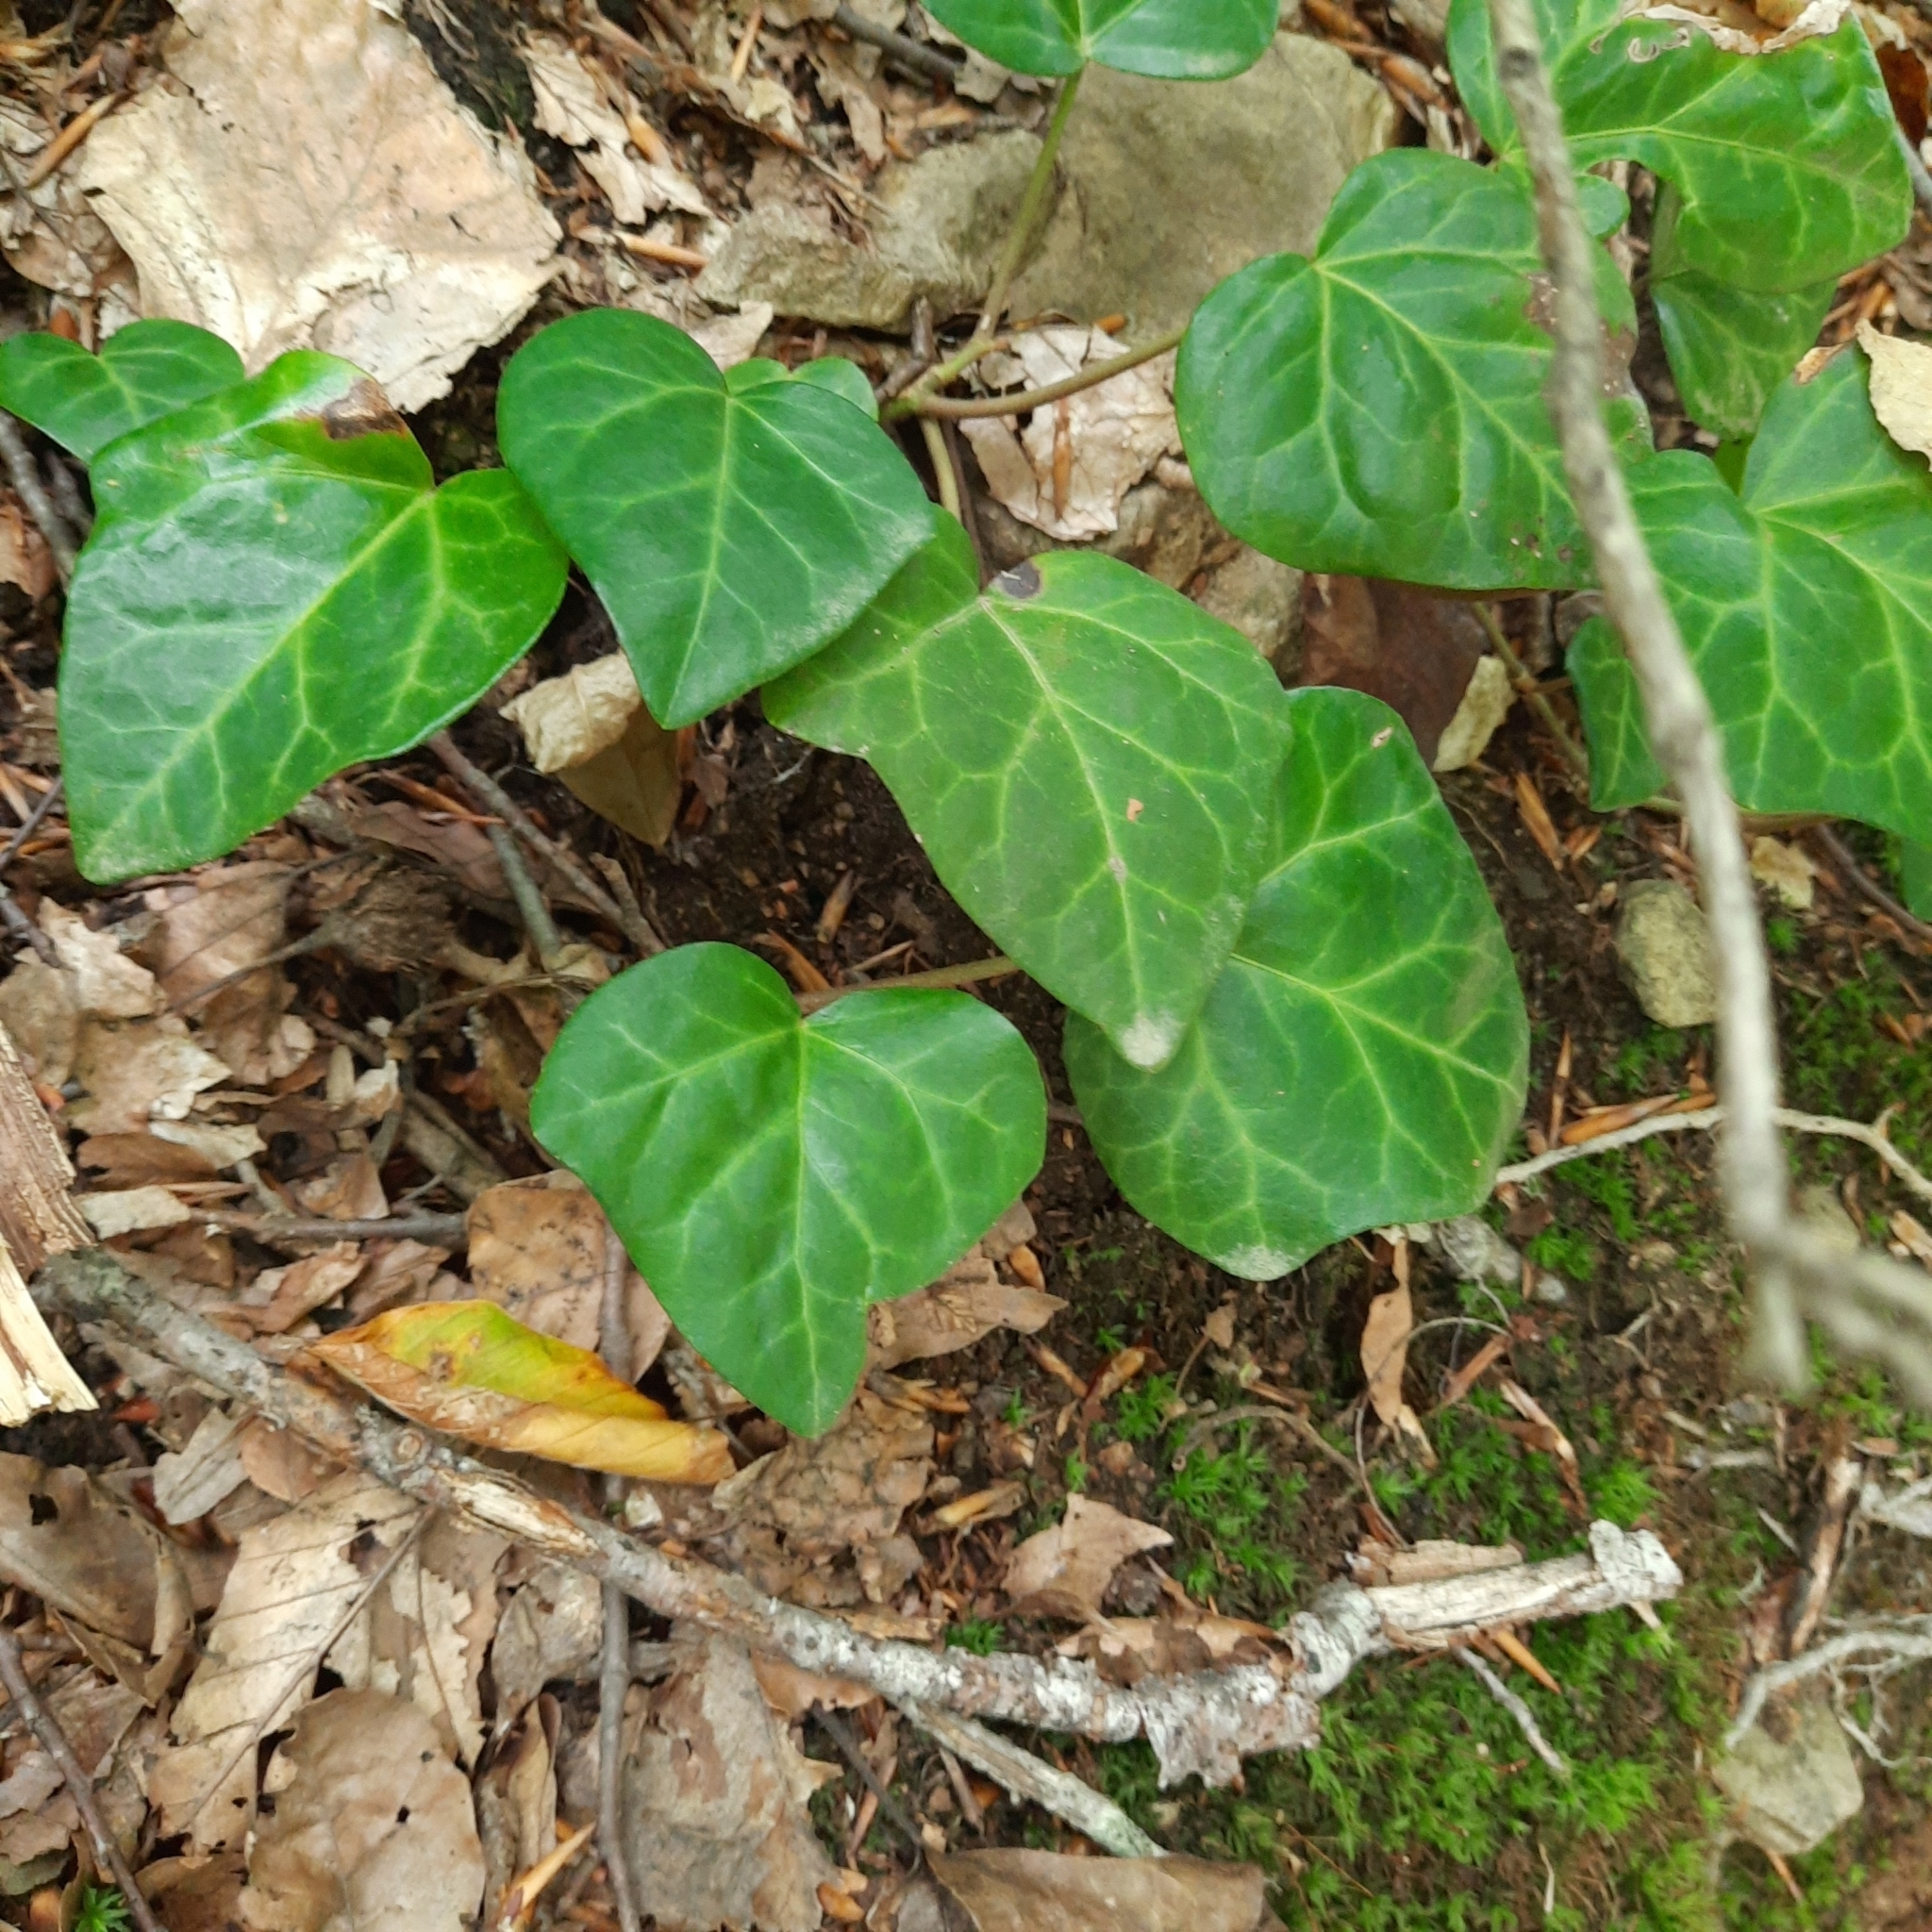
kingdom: Plantae
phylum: Tracheophyta
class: Magnoliopsida
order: Apiales
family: Araliaceae
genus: Hedera
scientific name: Hedera colchica
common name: Persian ivy
